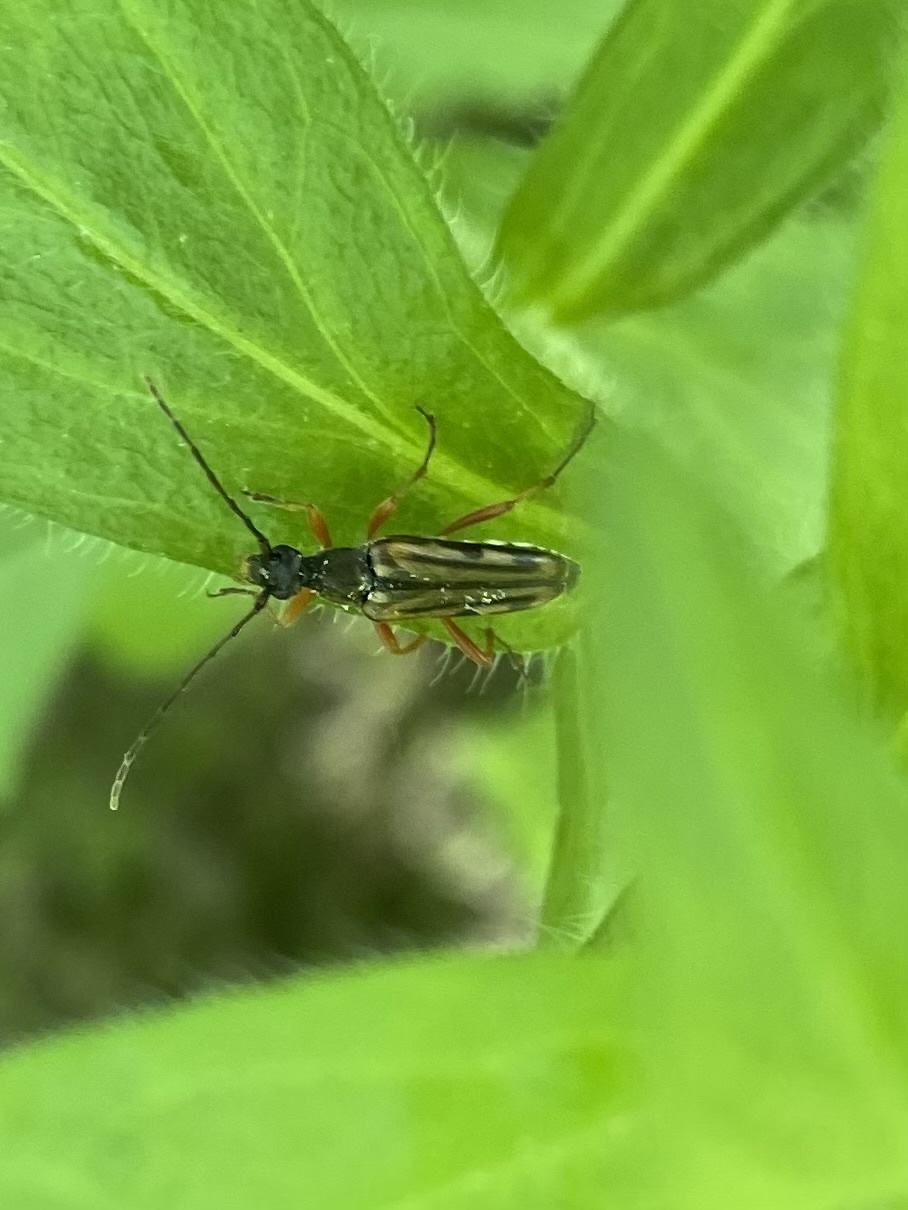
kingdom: Animalia
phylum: Arthropoda
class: Insecta
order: Coleoptera
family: Cerambycidae
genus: Analeptura
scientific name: Analeptura lineola
